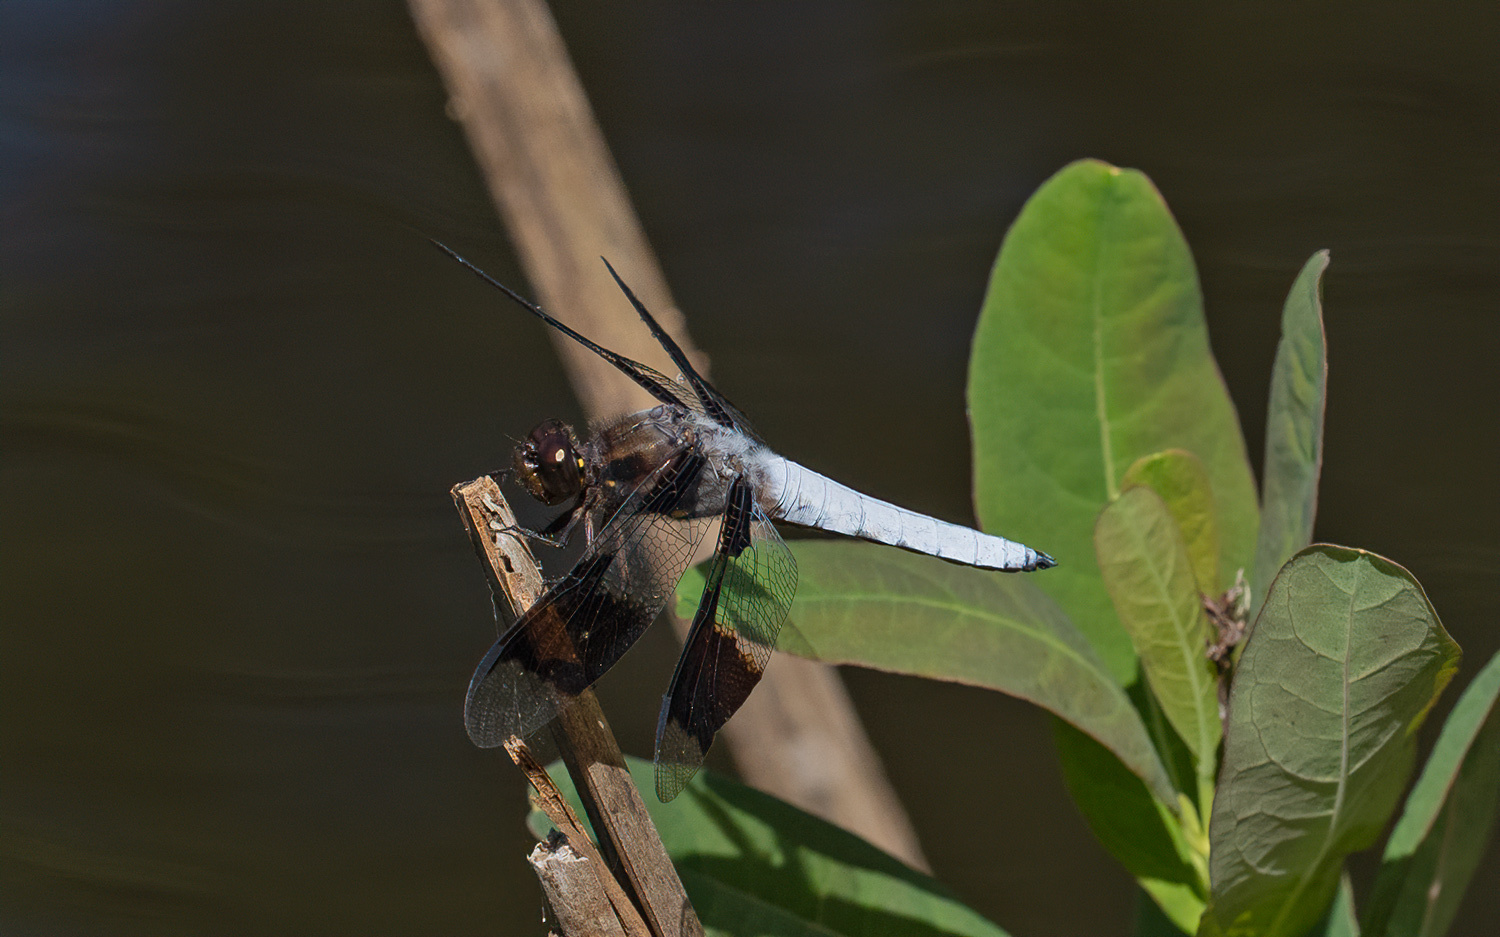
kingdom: Animalia
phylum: Arthropoda
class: Insecta
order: Odonata
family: Libellulidae
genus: Plathemis
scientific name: Plathemis lydia
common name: Common whitetail
